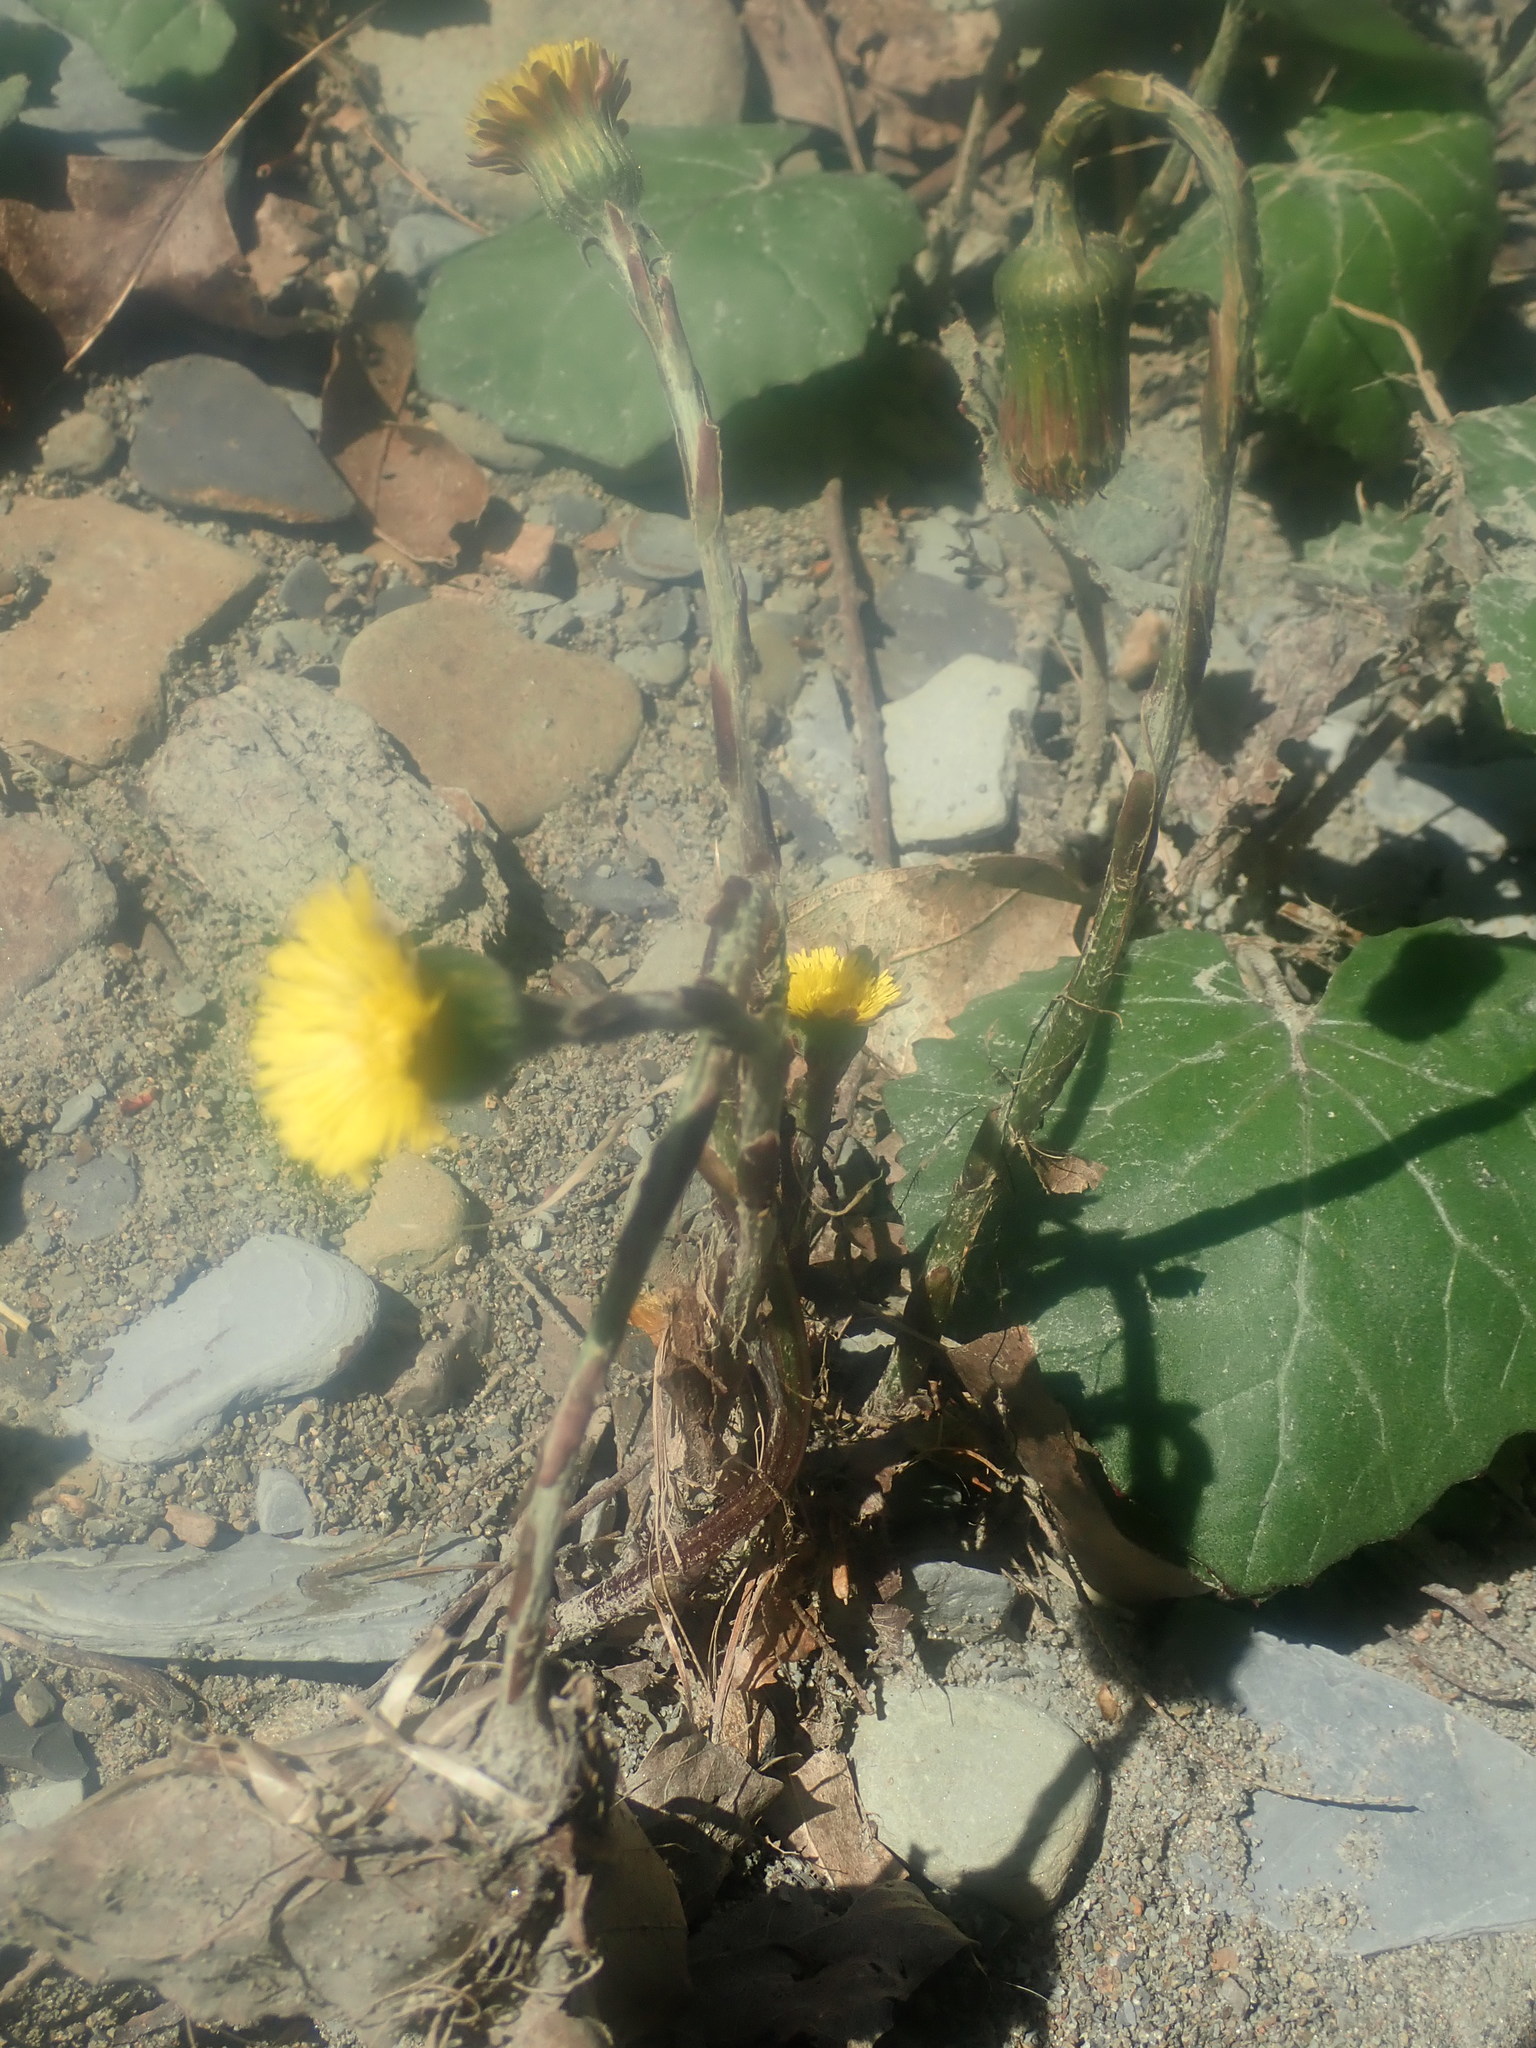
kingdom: Plantae
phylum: Tracheophyta
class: Magnoliopsida
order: Asterales
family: Asteraceae
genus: Tussilago
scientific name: Tussilago farfara
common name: Coltsfoot
